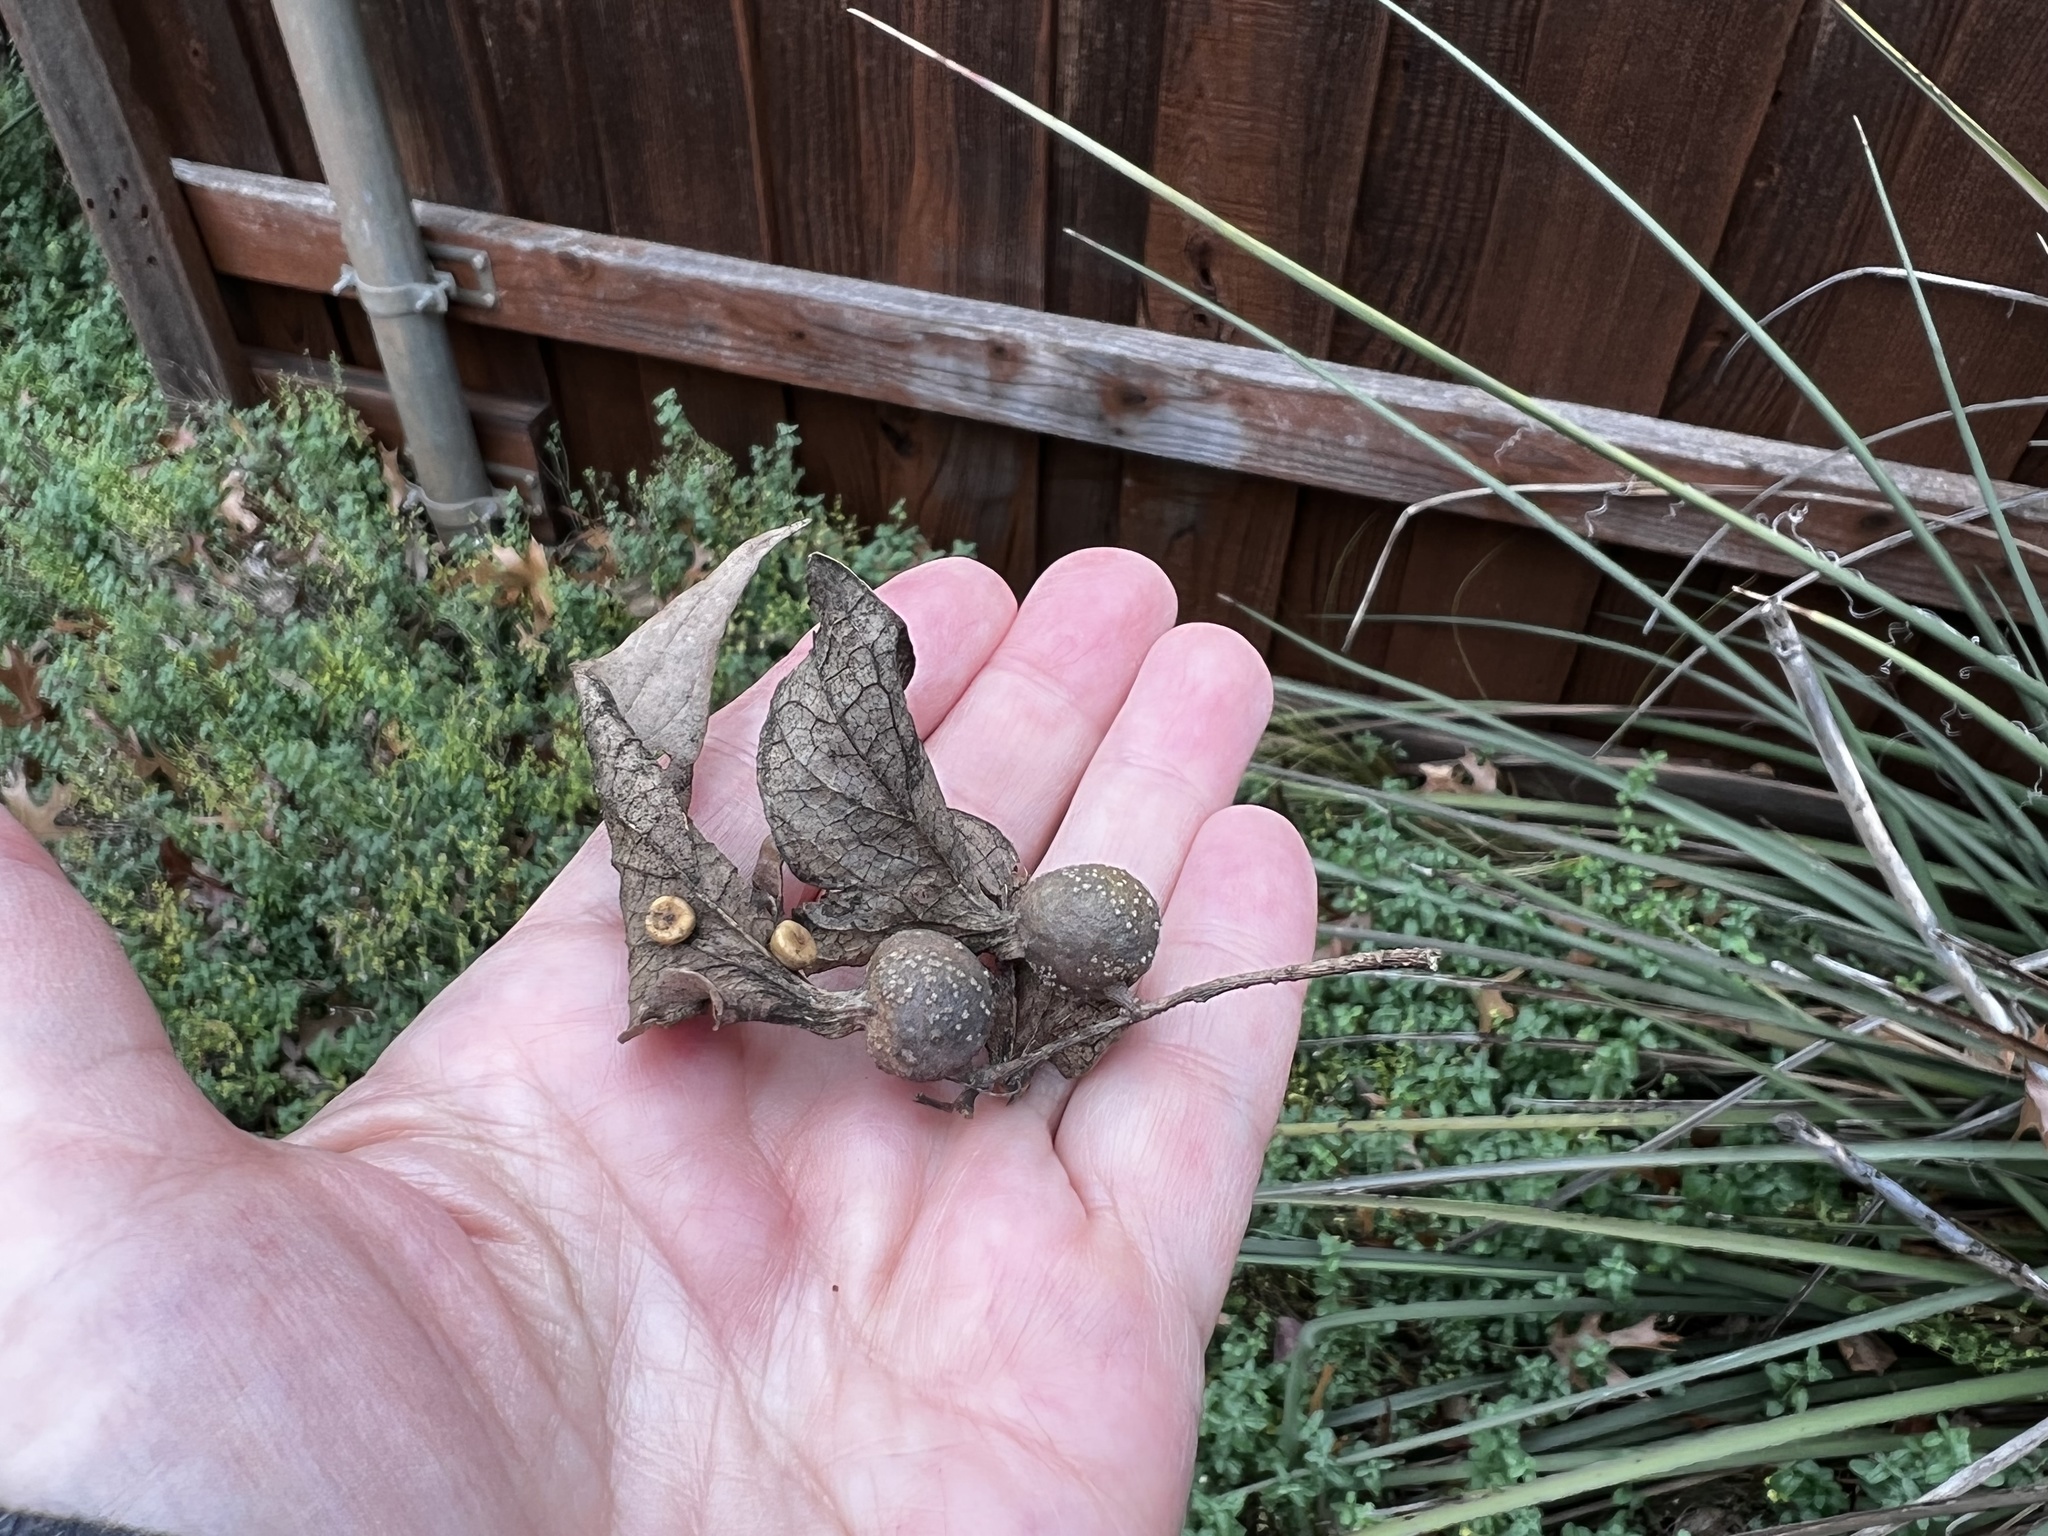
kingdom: Animalia
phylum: Arthropoda
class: Insecta
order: Hemiptera
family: Aphalaridae
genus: Pachypsylla
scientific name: Pachypsylla venusta
